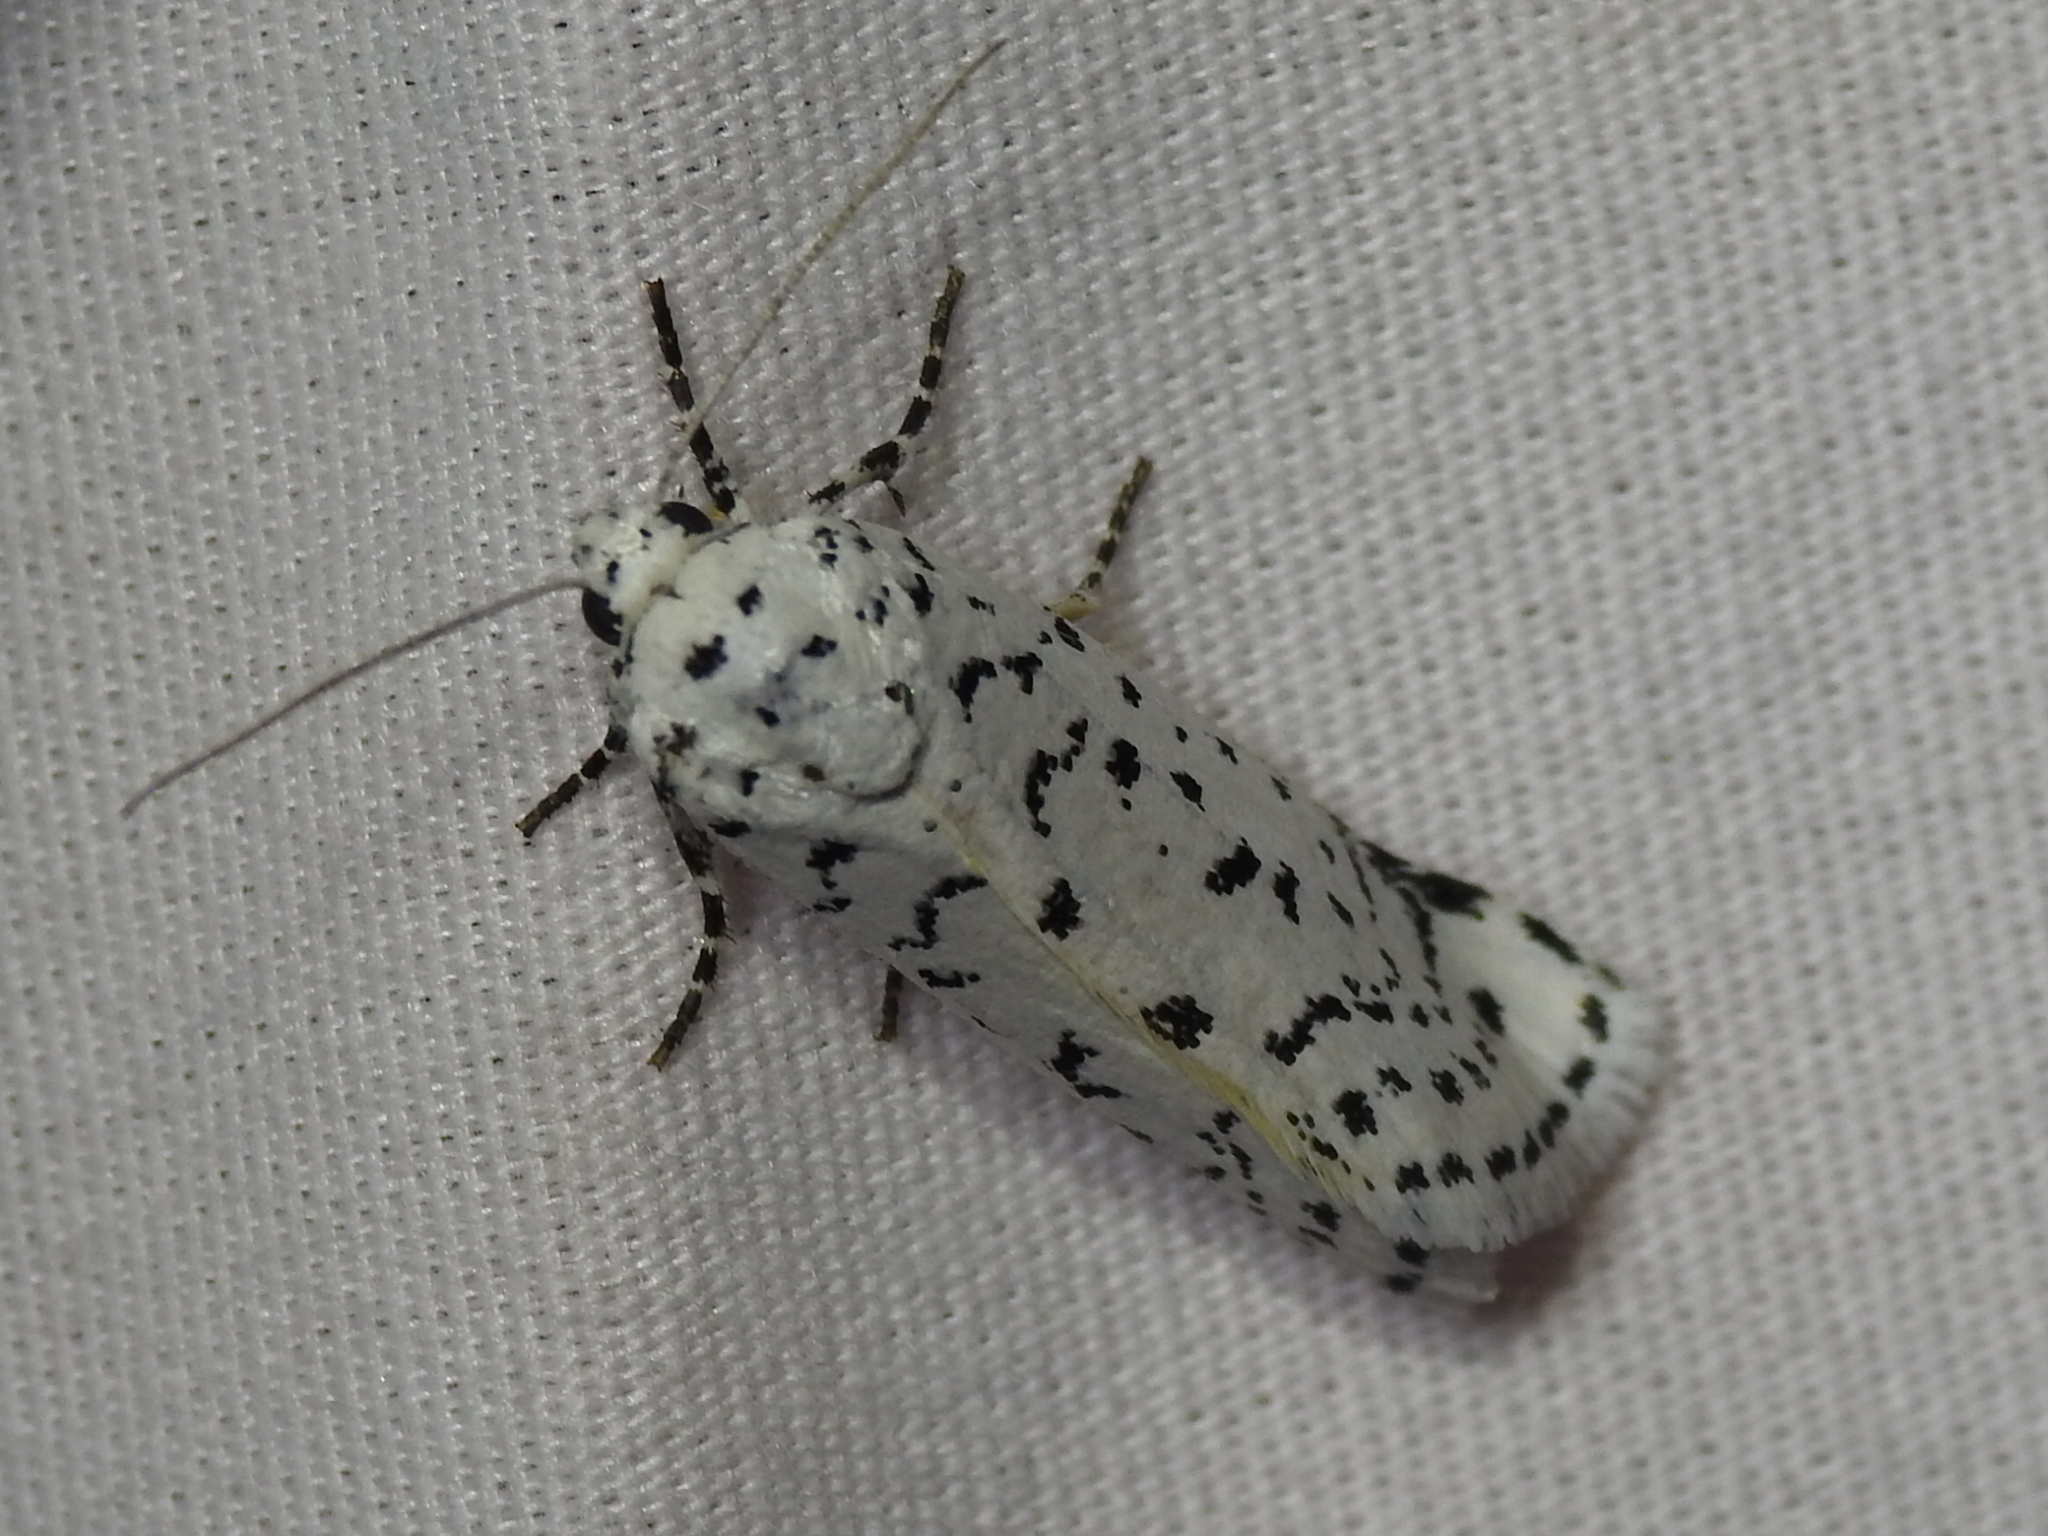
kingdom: Animalia
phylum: Arthropoda
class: Insecta
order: Lepidoptera
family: Noctuidae
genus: Cerathosia
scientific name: Cerathosia tricolor
